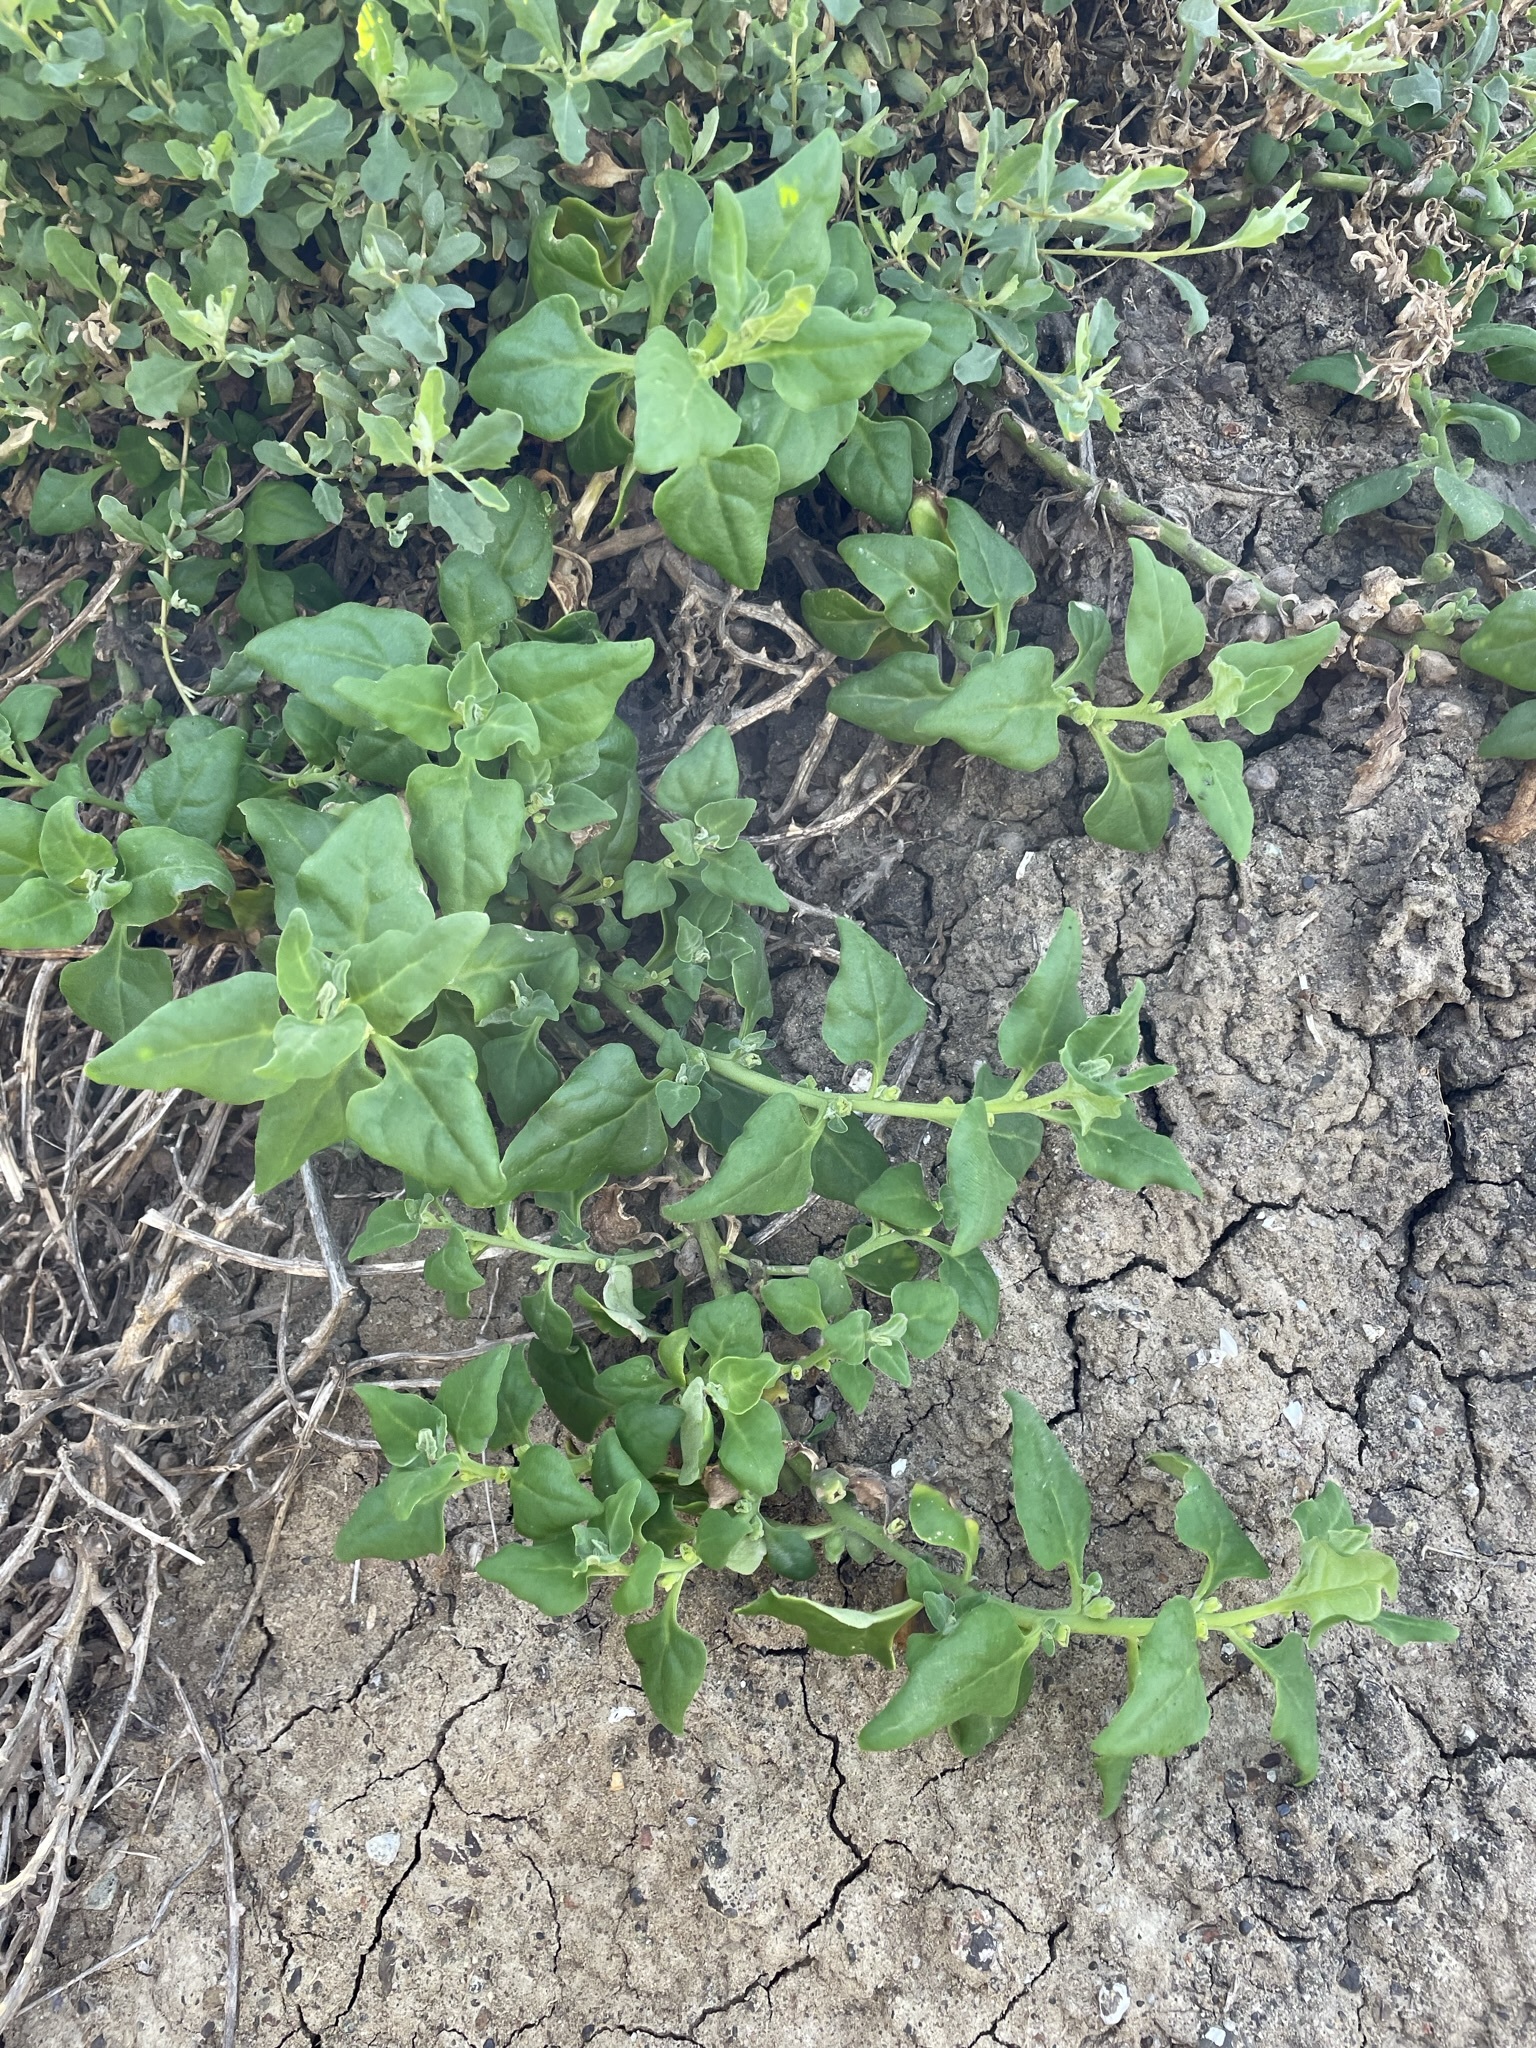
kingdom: Plantae
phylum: Tracheophyta
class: Magnoliopsida
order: Caryophyllales
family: Aizoaceae
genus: Tetragonia
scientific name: Tetragonia tetragonoides
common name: New zealand-spinach
